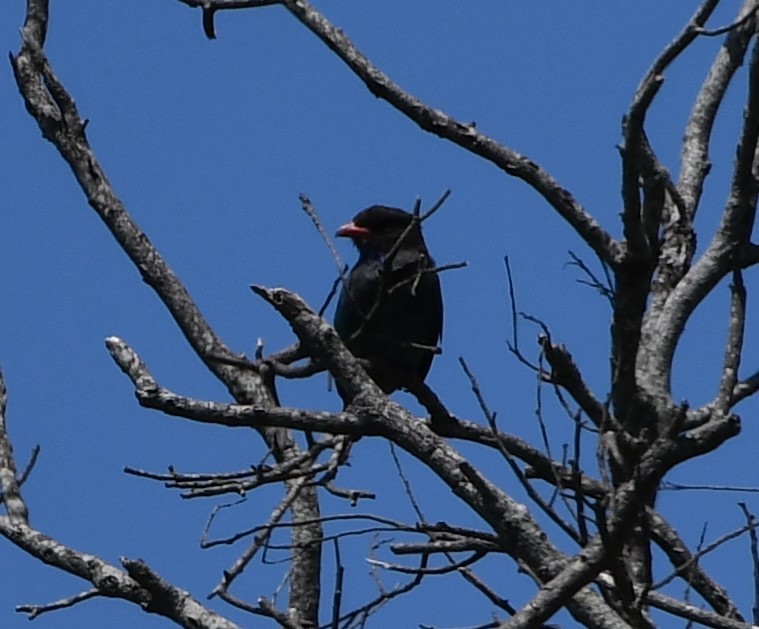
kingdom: Animalia
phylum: Chordata
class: Aves
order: Coraciiformes
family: Coraciidae
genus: Eurystomus
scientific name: Eurystomus orientalis
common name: Oriental dollarbird
